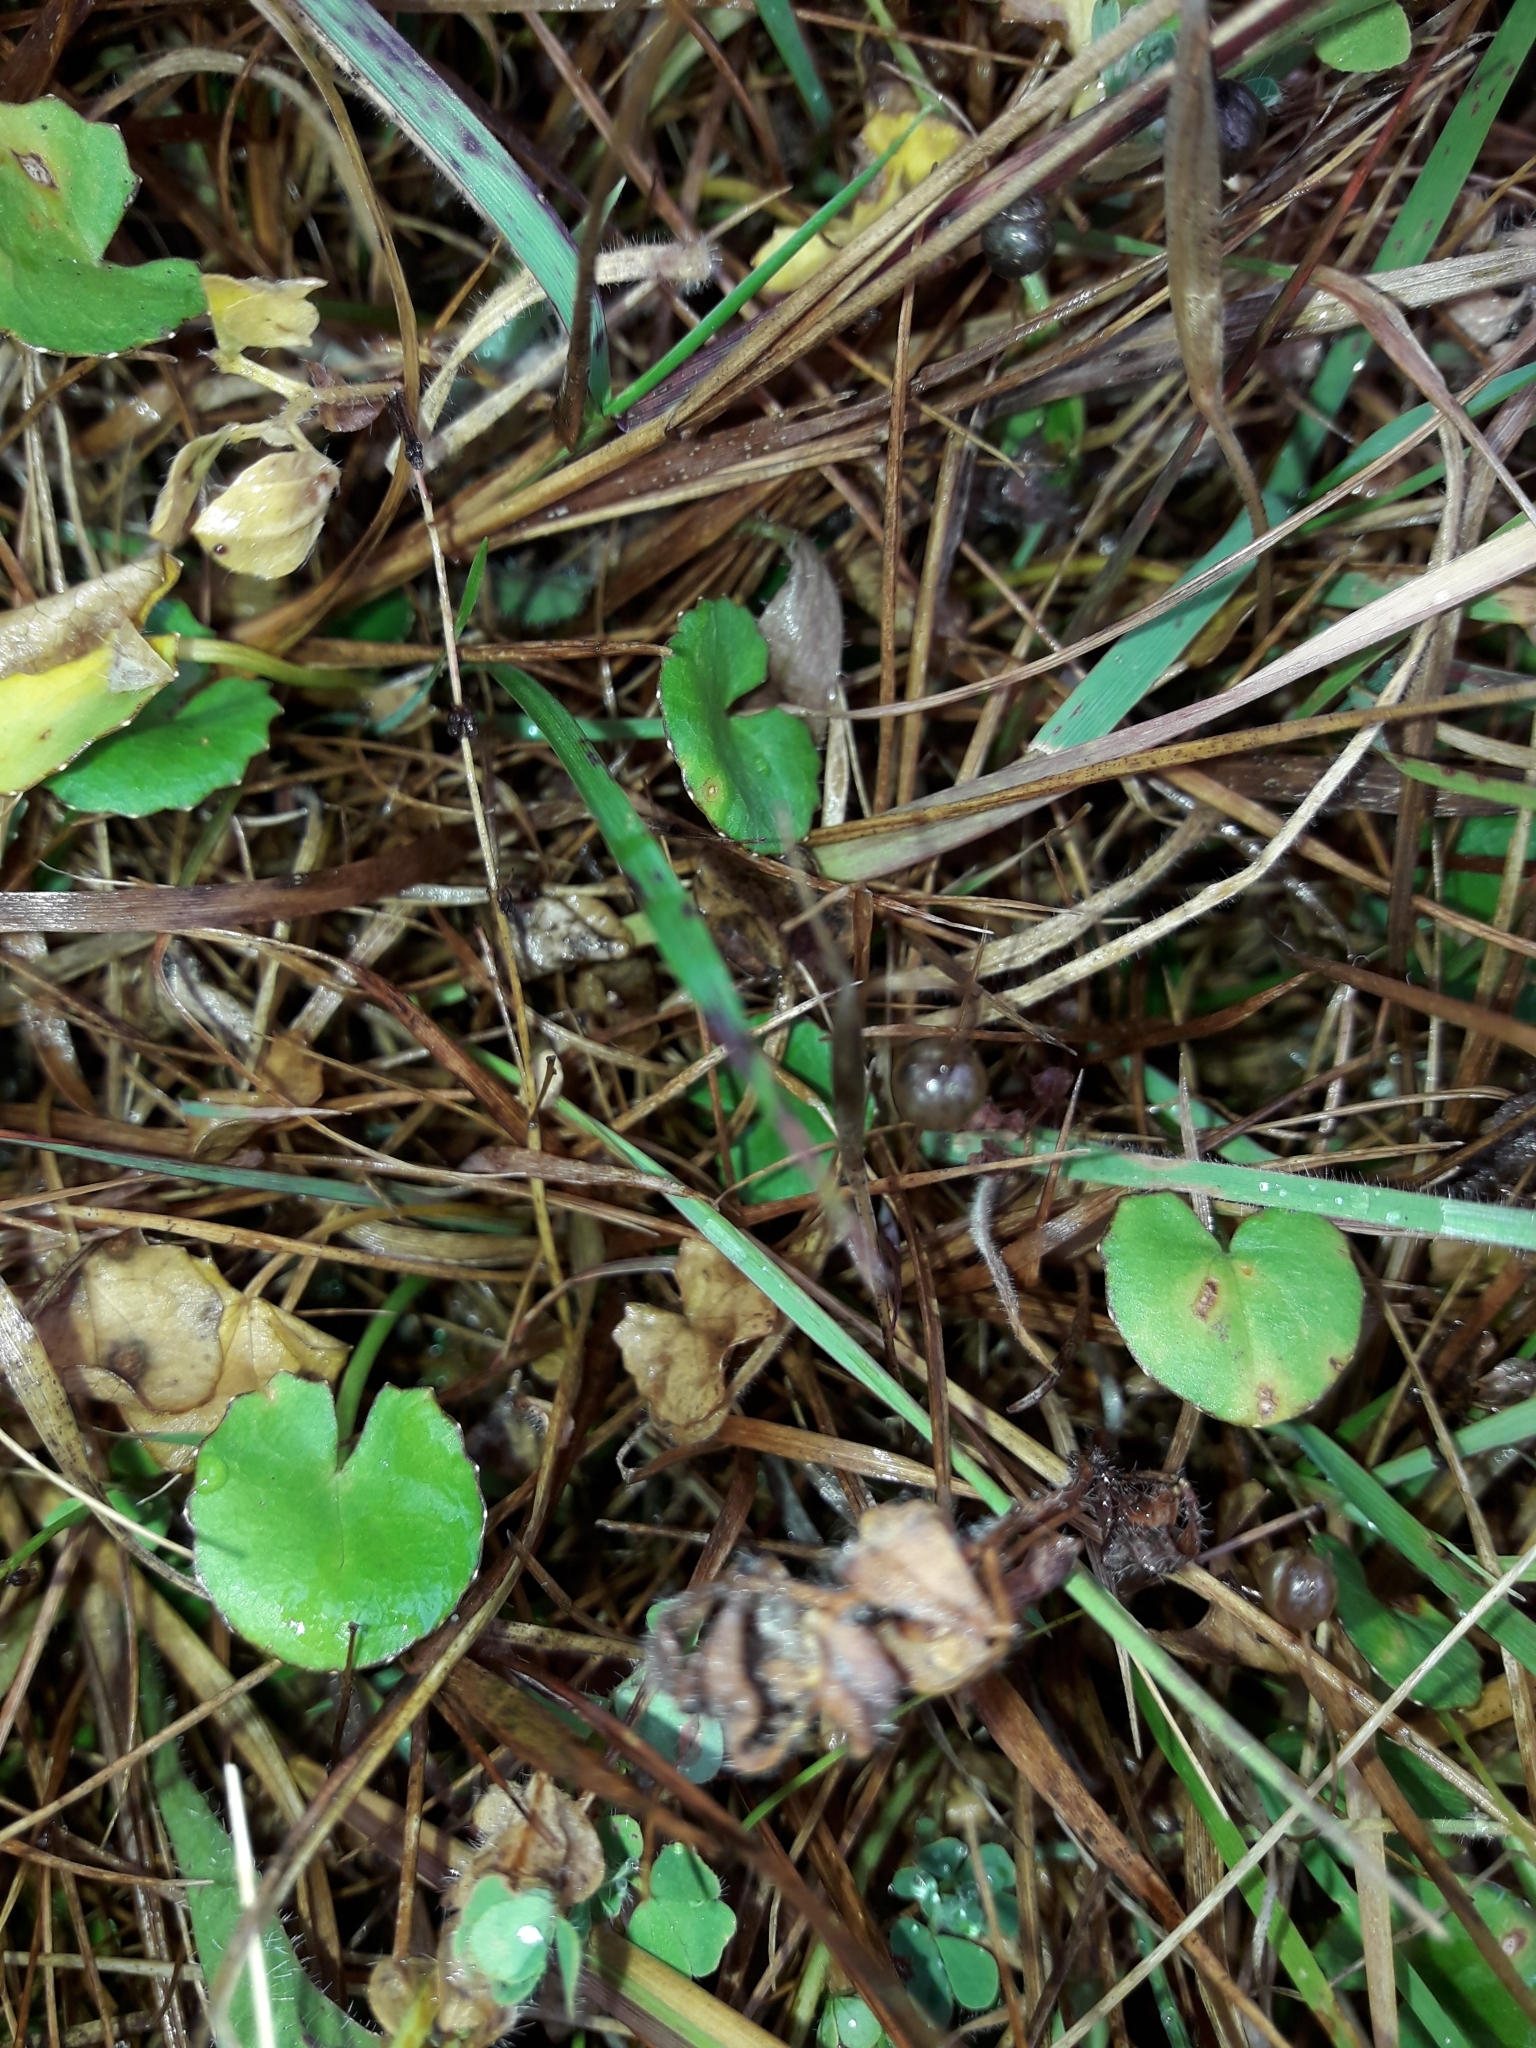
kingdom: Plantae
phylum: Tracheophyta
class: Magnoliopsida
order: Apiales
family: Apiaceae
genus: Centella
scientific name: Centella uniflora
